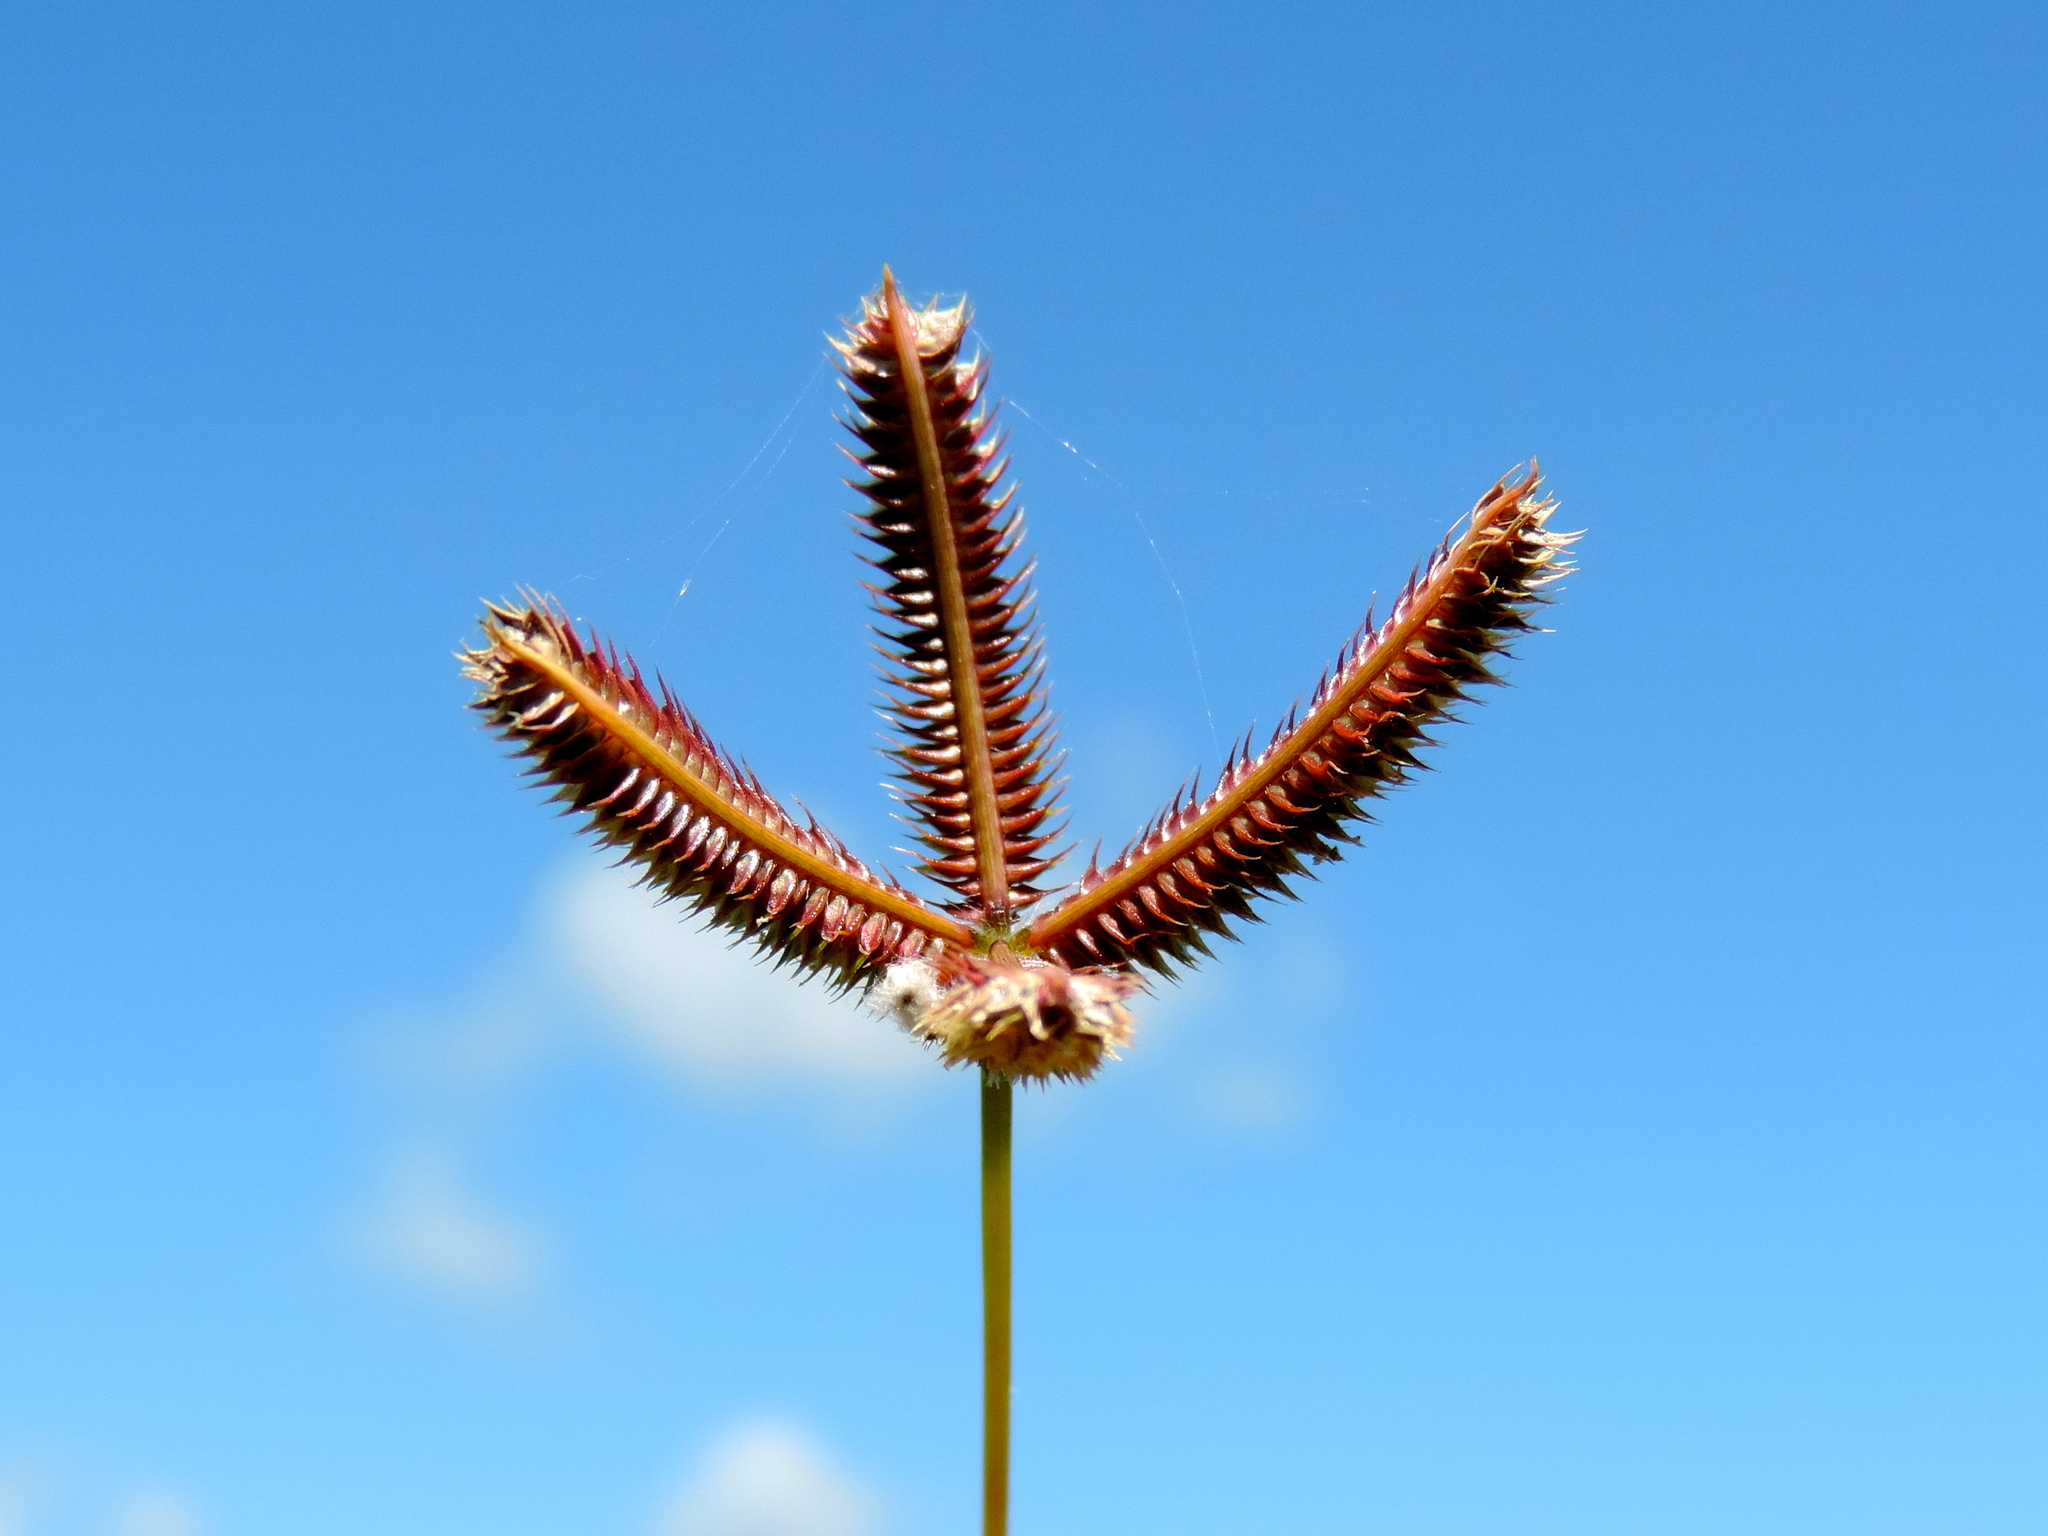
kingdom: Plantae
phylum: Tracheophyta
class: Liliopsida
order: Poales
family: Poaceae
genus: Dactyloctenium
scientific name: Dactyloctenium aegyptium
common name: Egyptian grass
